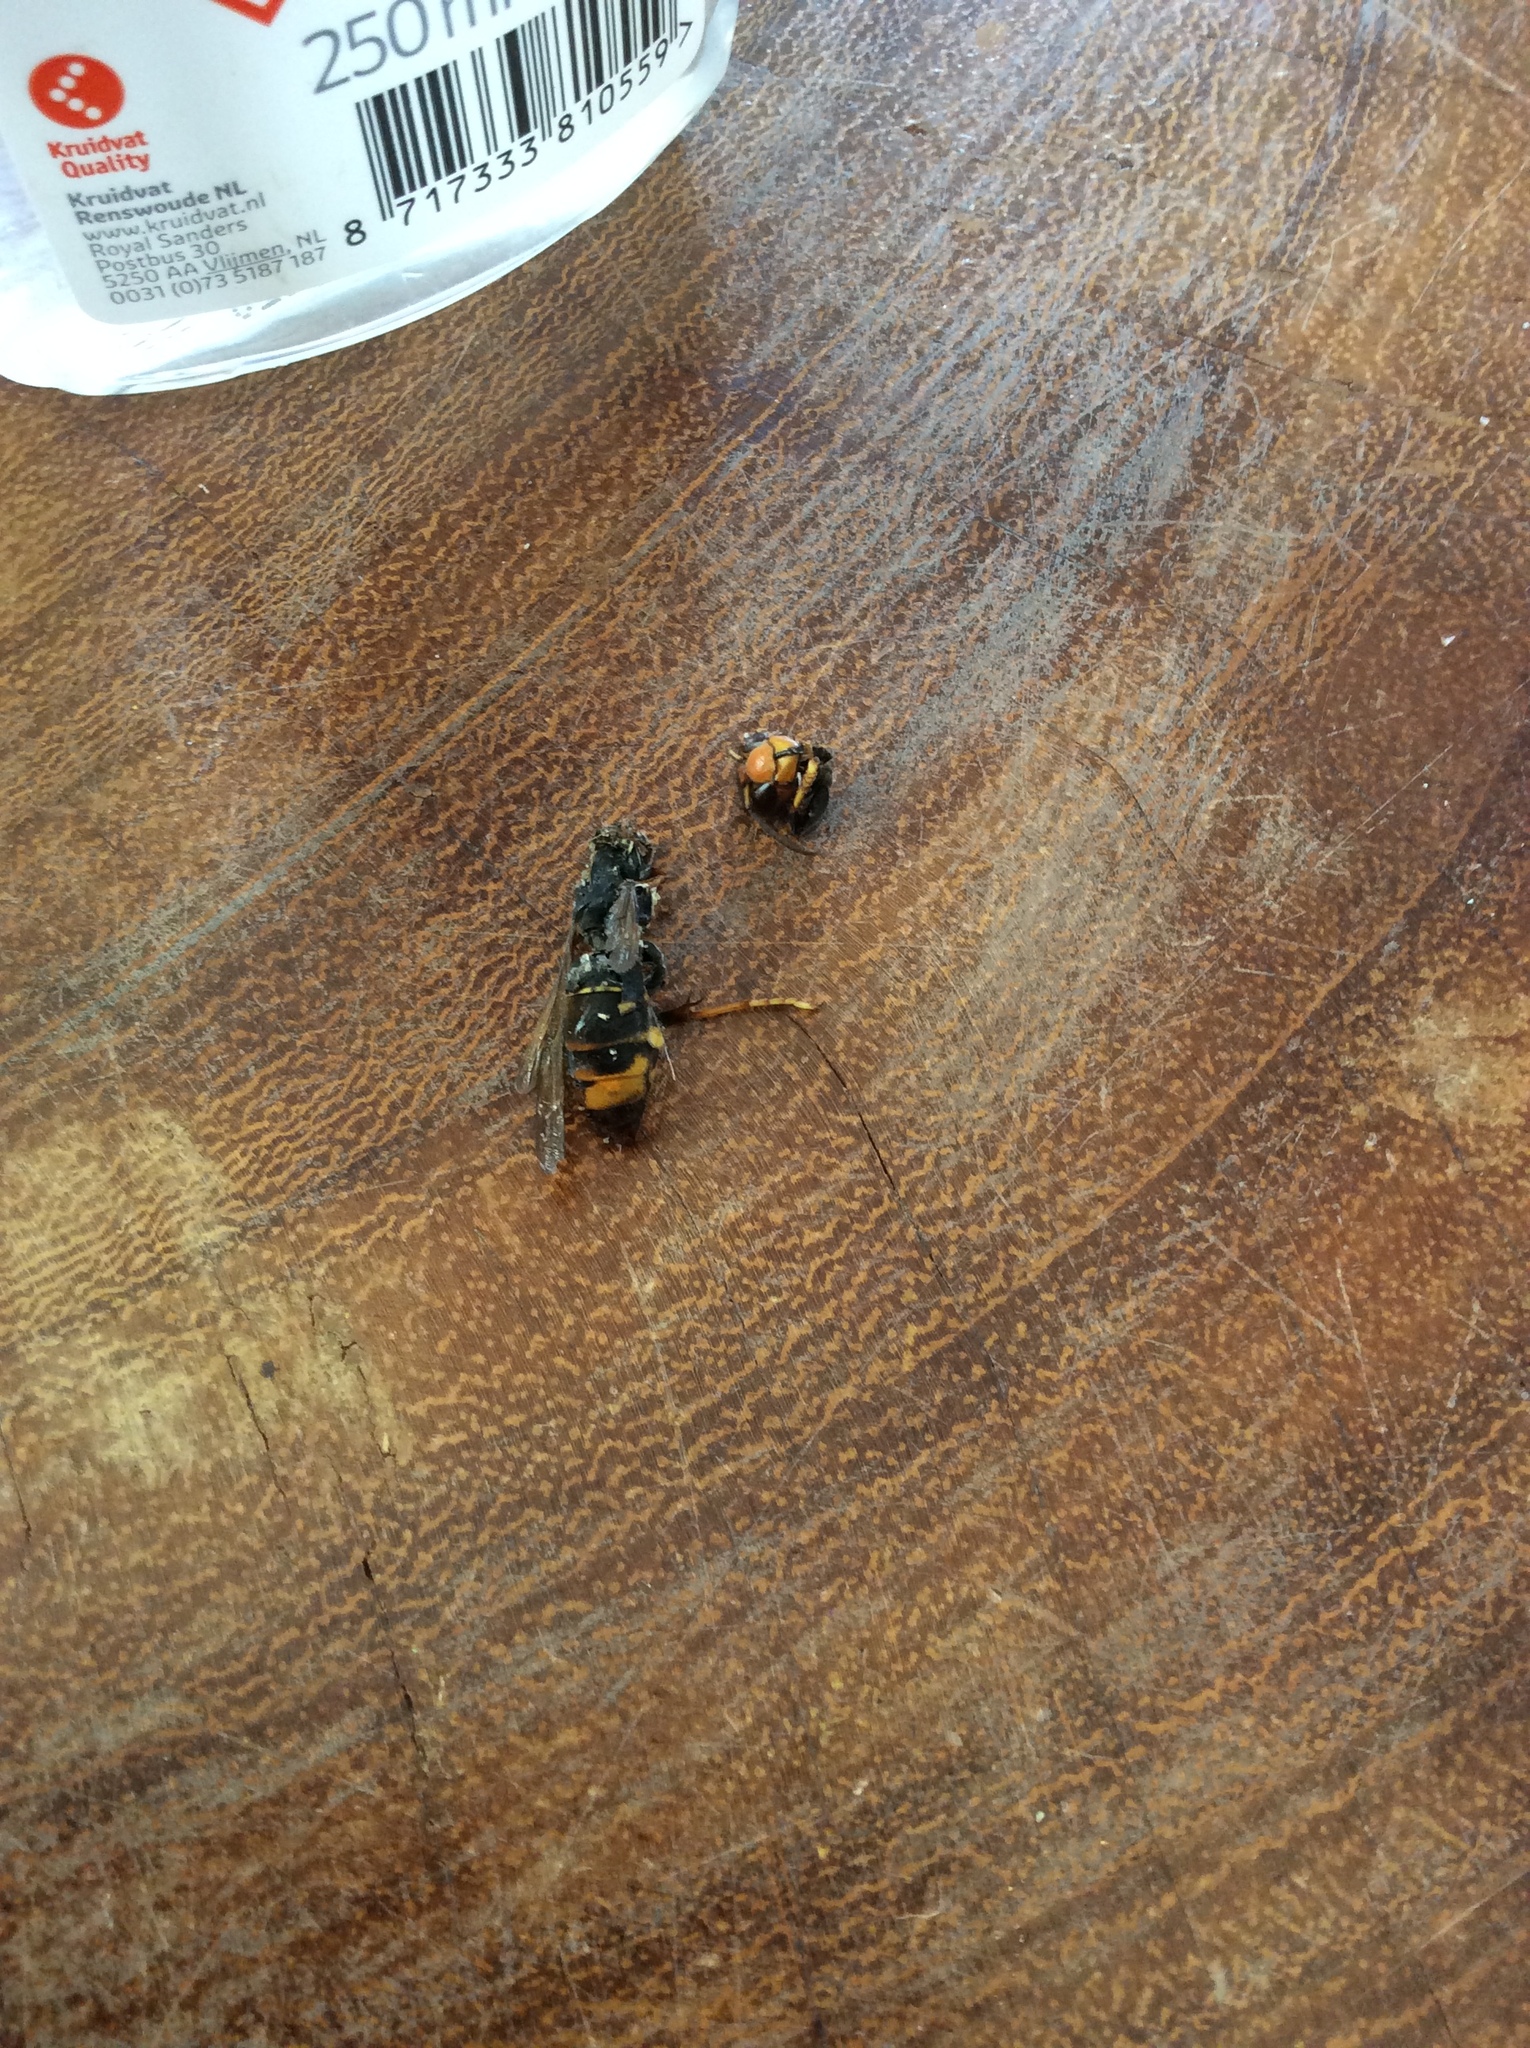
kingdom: Animalia
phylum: Arthropoda
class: Insecta
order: Hymenoptera
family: Vespidae
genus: Vespa
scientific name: Vespa velutina
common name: Asian hornet
